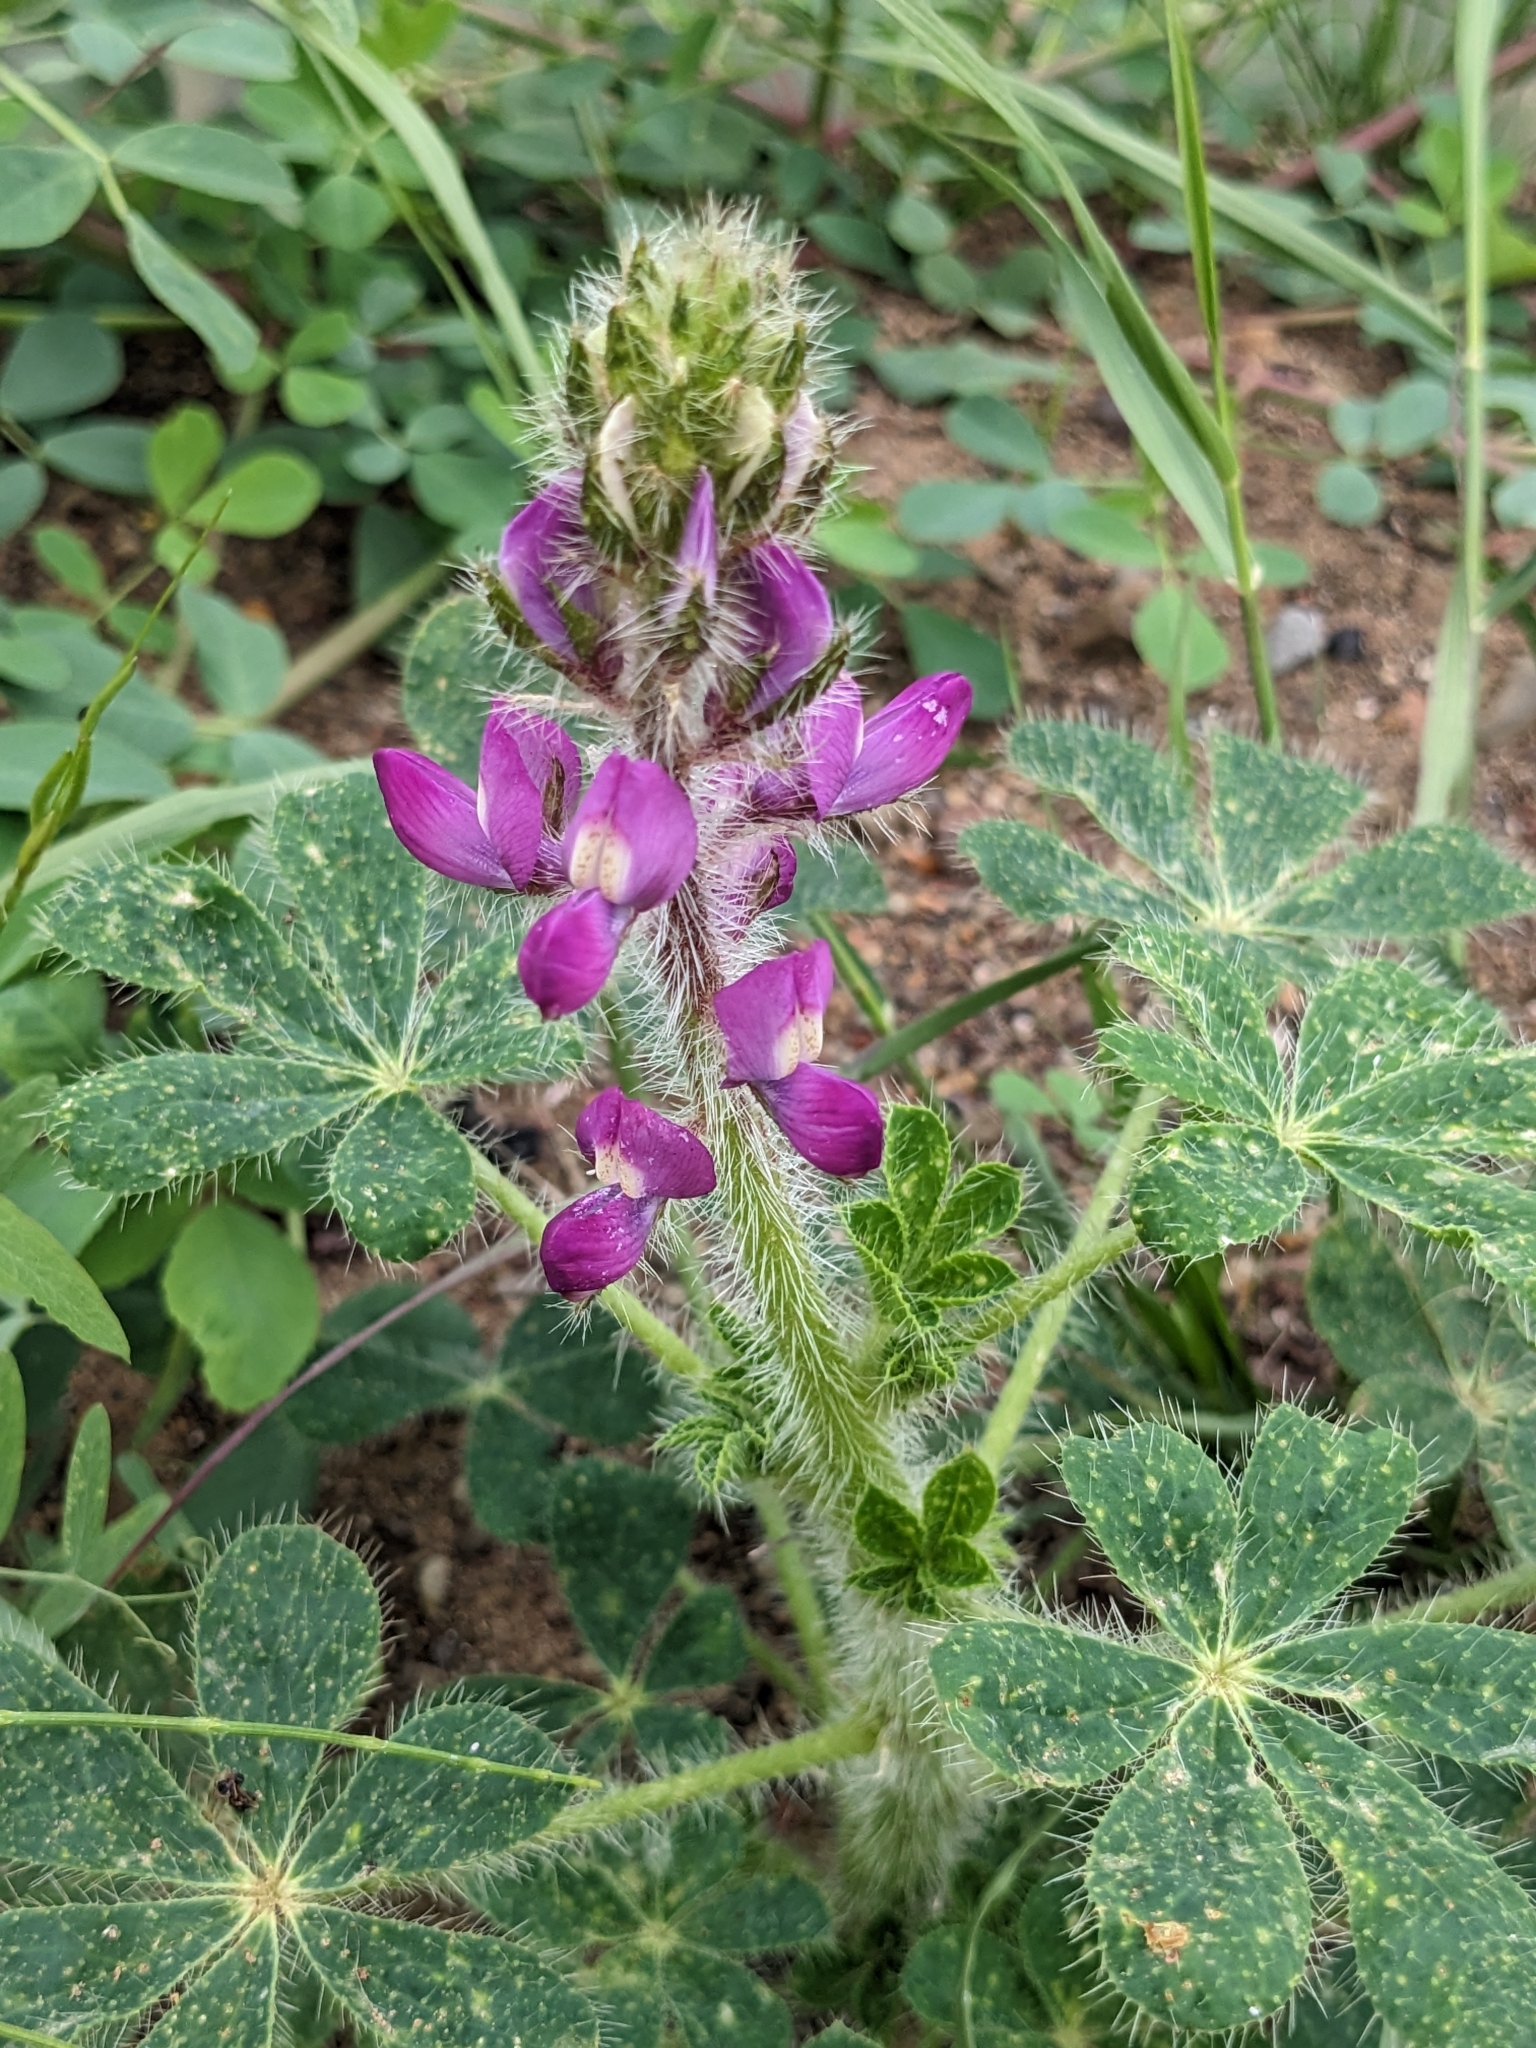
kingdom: Plantae
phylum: Tracheophyta
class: Magnoliopsida
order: Fabales
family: Fabaceae
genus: Lupinus
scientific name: Lupinus hirsutissimus
